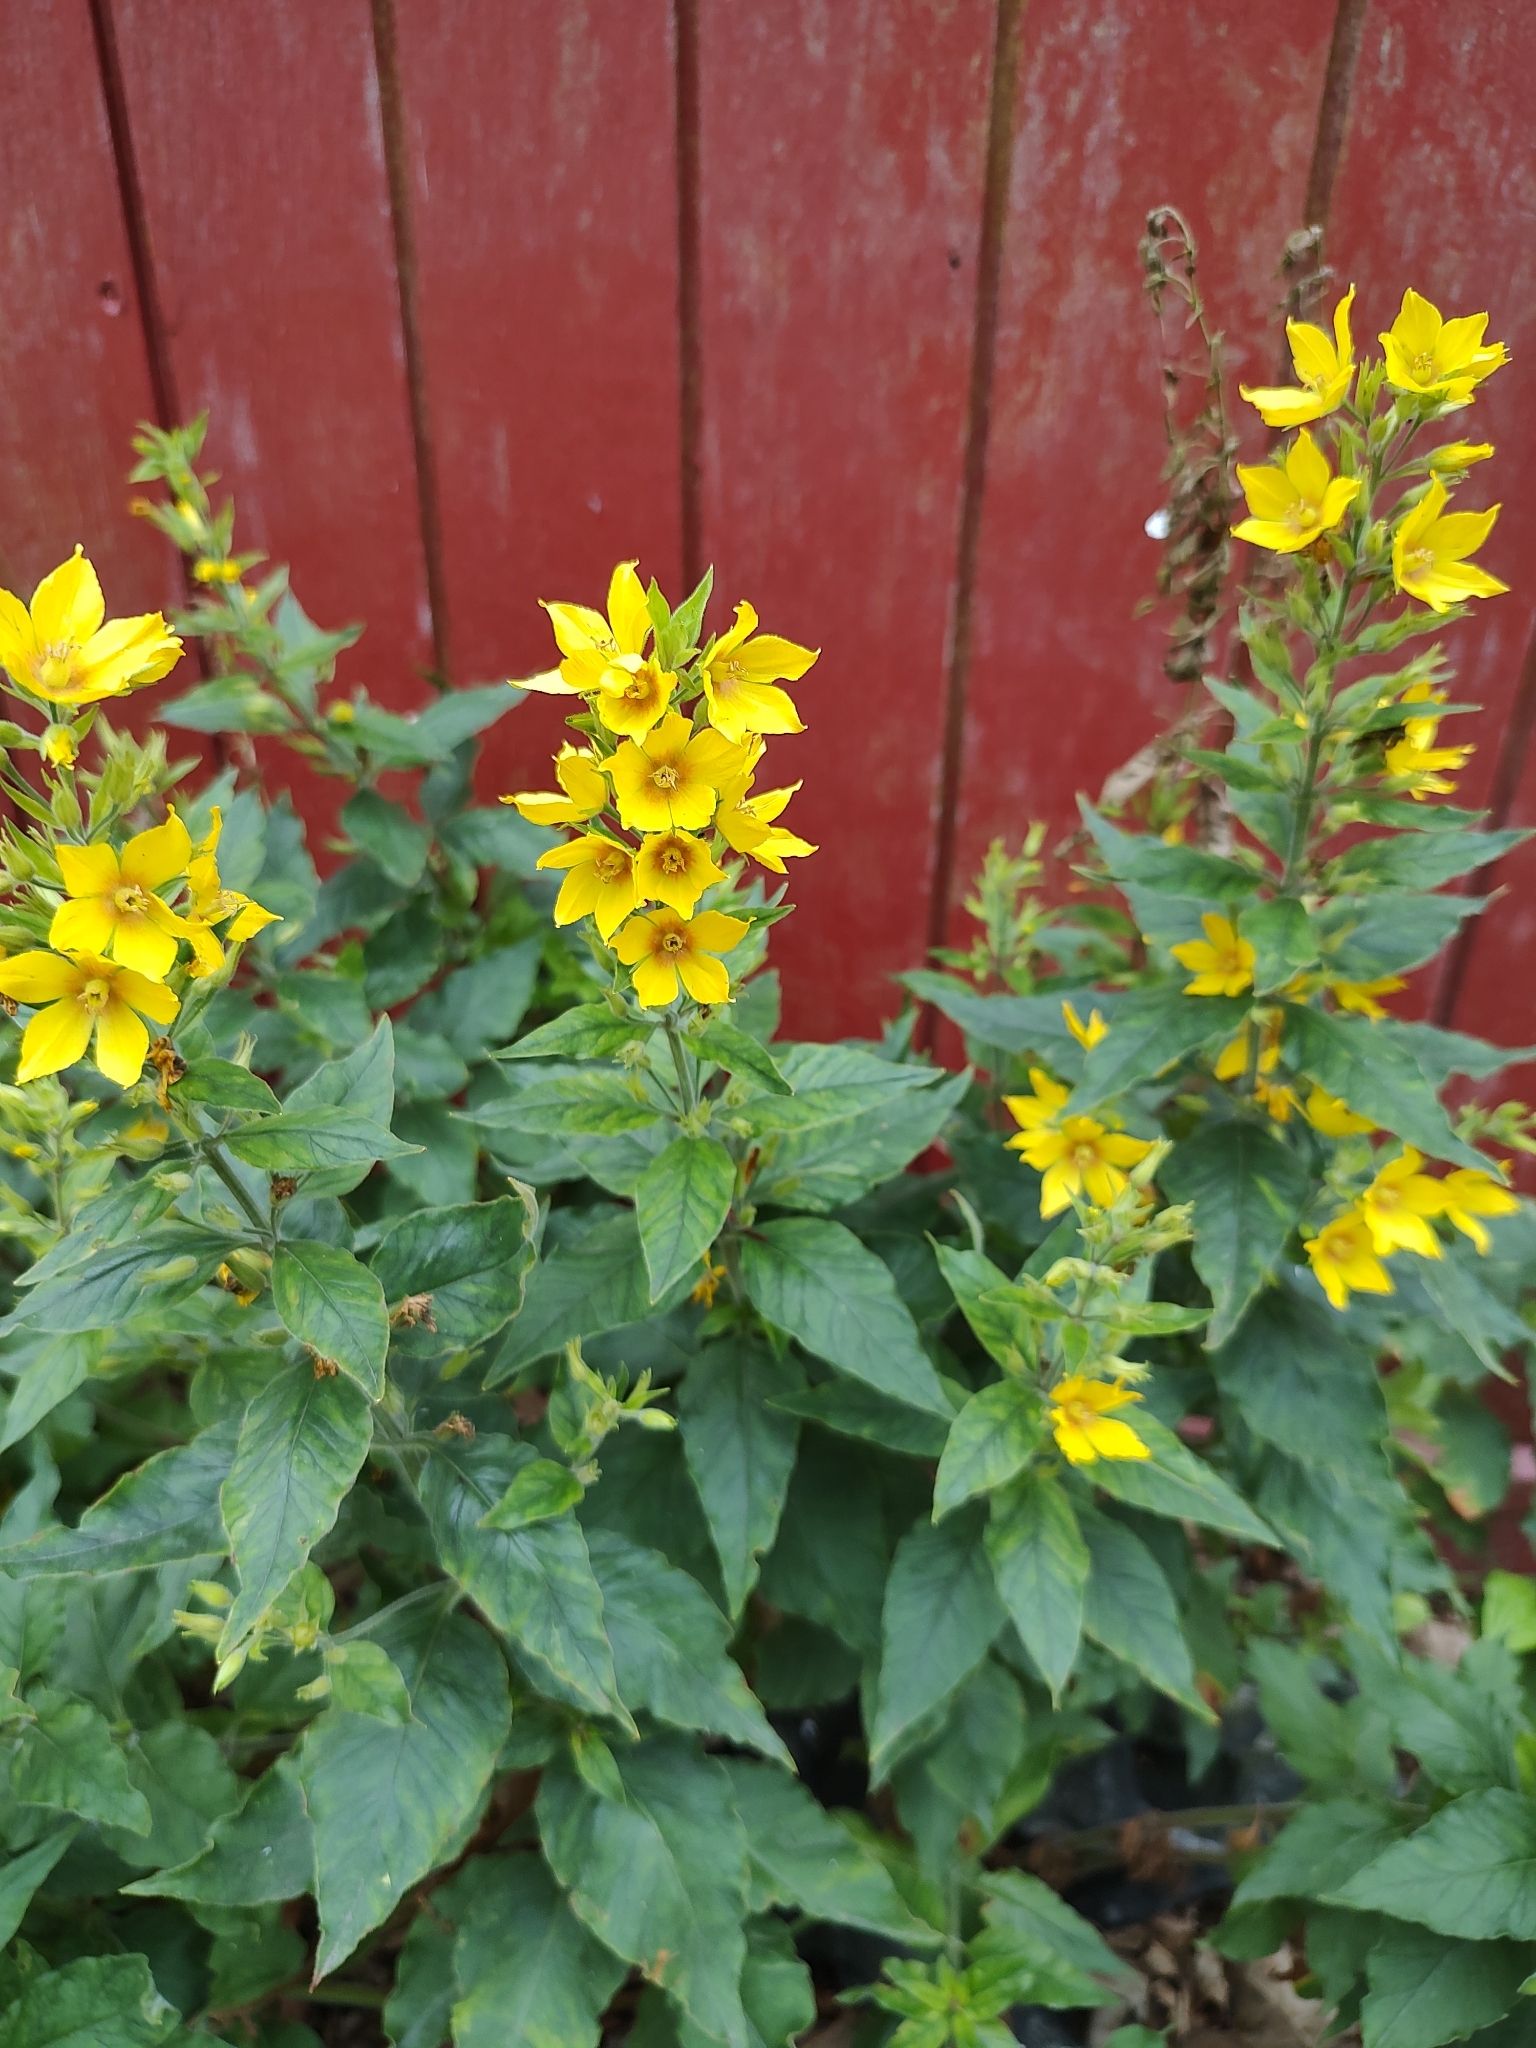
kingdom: Plantae
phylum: Tracheophyta
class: Magnoliopsida
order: Ericales
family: Primulaceae
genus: Lysimachia
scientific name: Lysimachia punctata
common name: Dotted loosestrife
